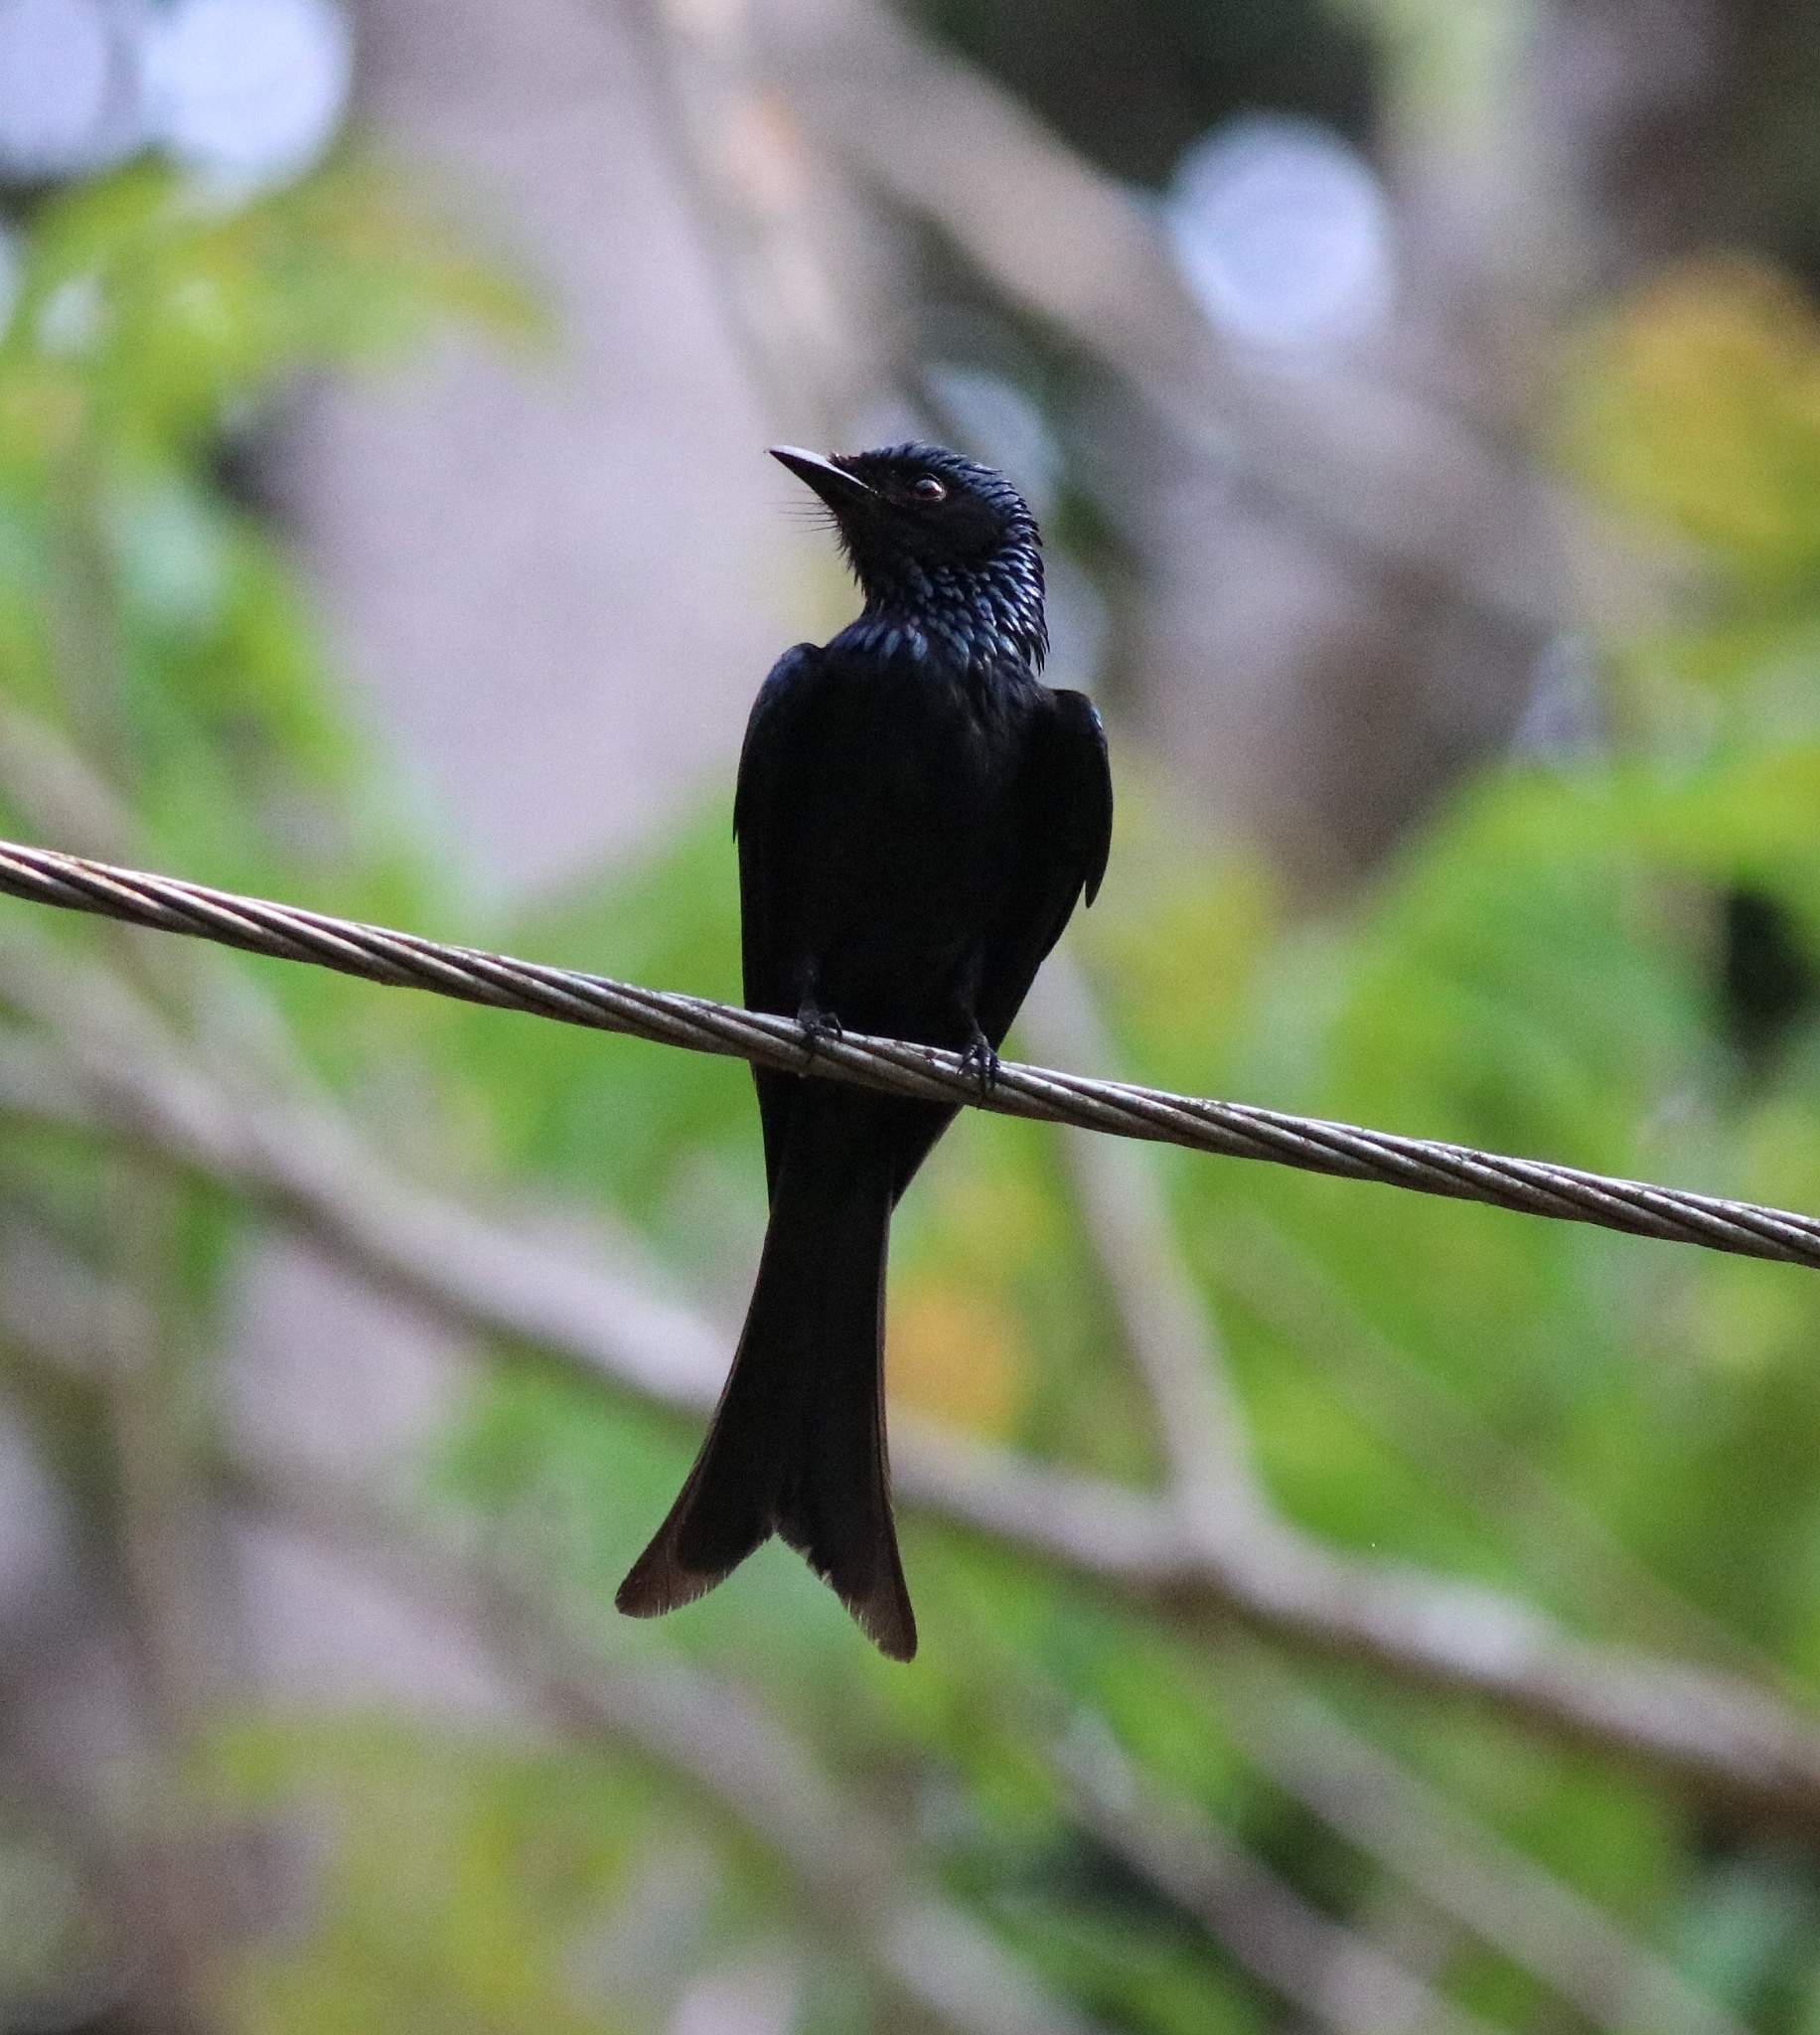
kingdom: Animalia
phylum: Chordata
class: Aves
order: Passeriformes
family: Dicruridae
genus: Dicrurus
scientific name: Dicrurus aeneus
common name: Bronzed drongo
